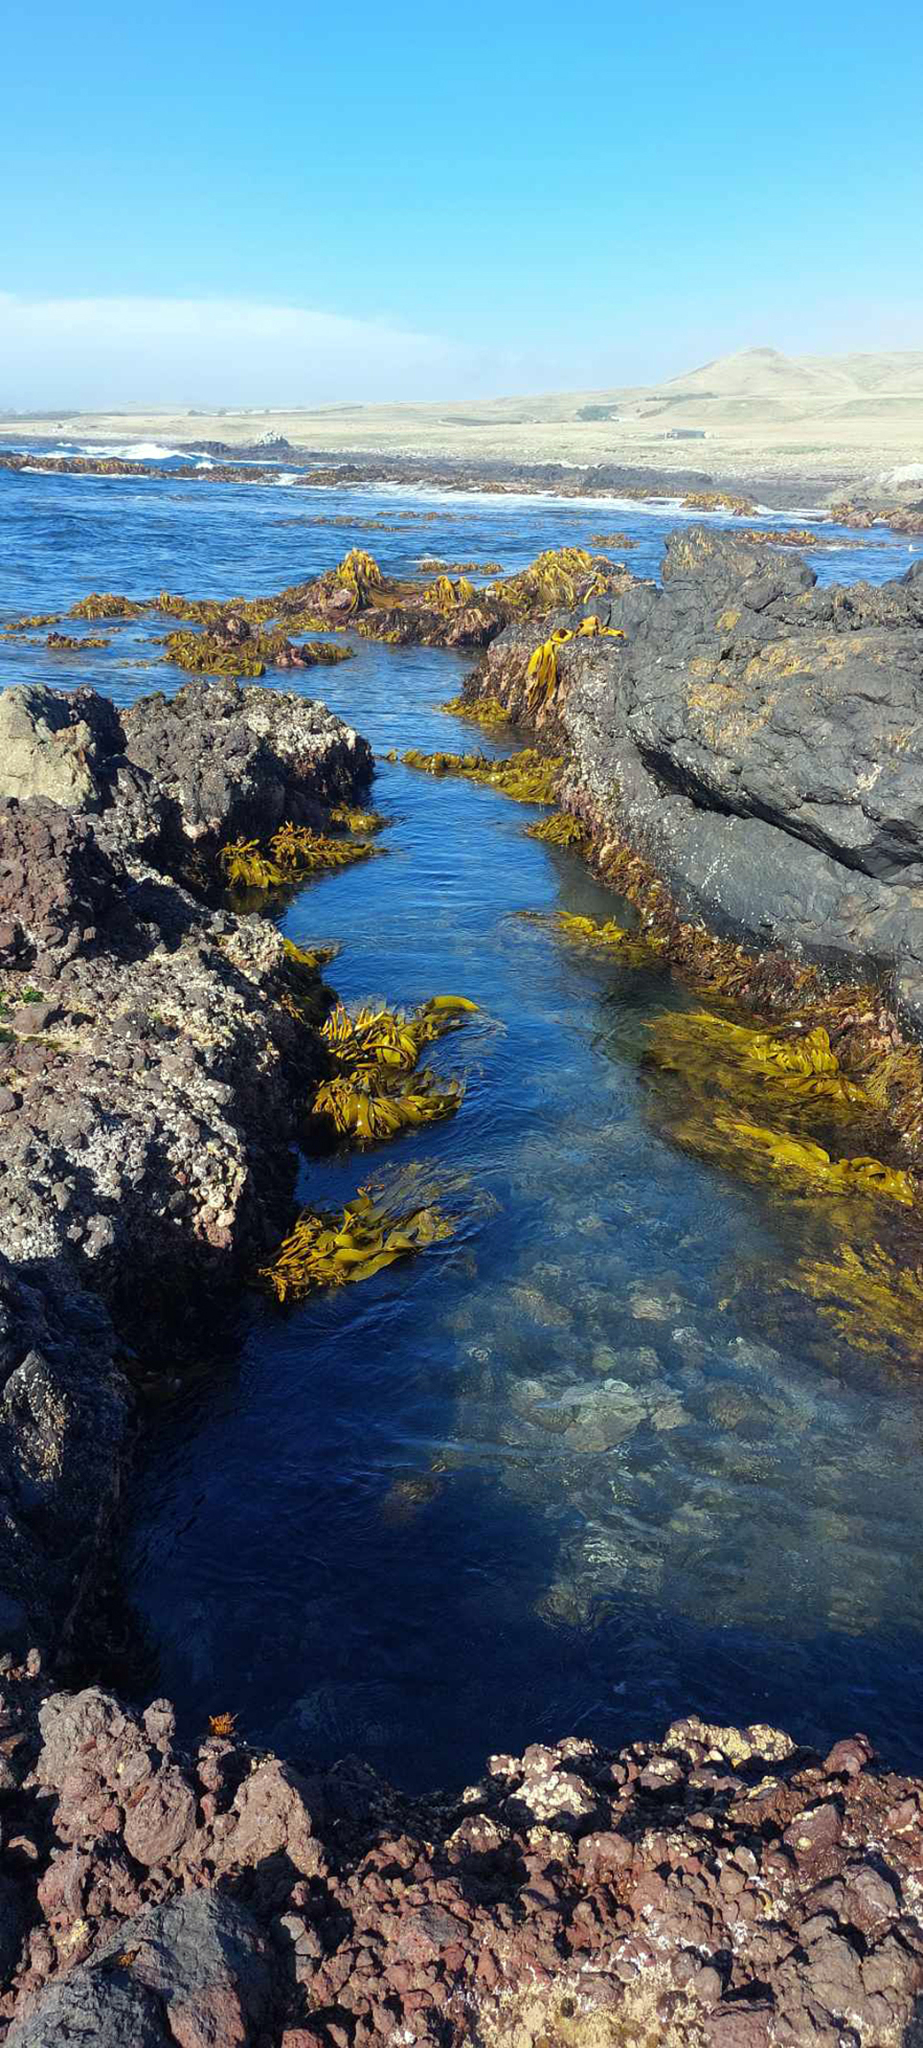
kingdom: Chromista
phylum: Ochrophyta
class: Phaeophyceae
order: Laminariales
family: Lessoniaceae
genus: Lessonia
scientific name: Lessonia tholiformis
